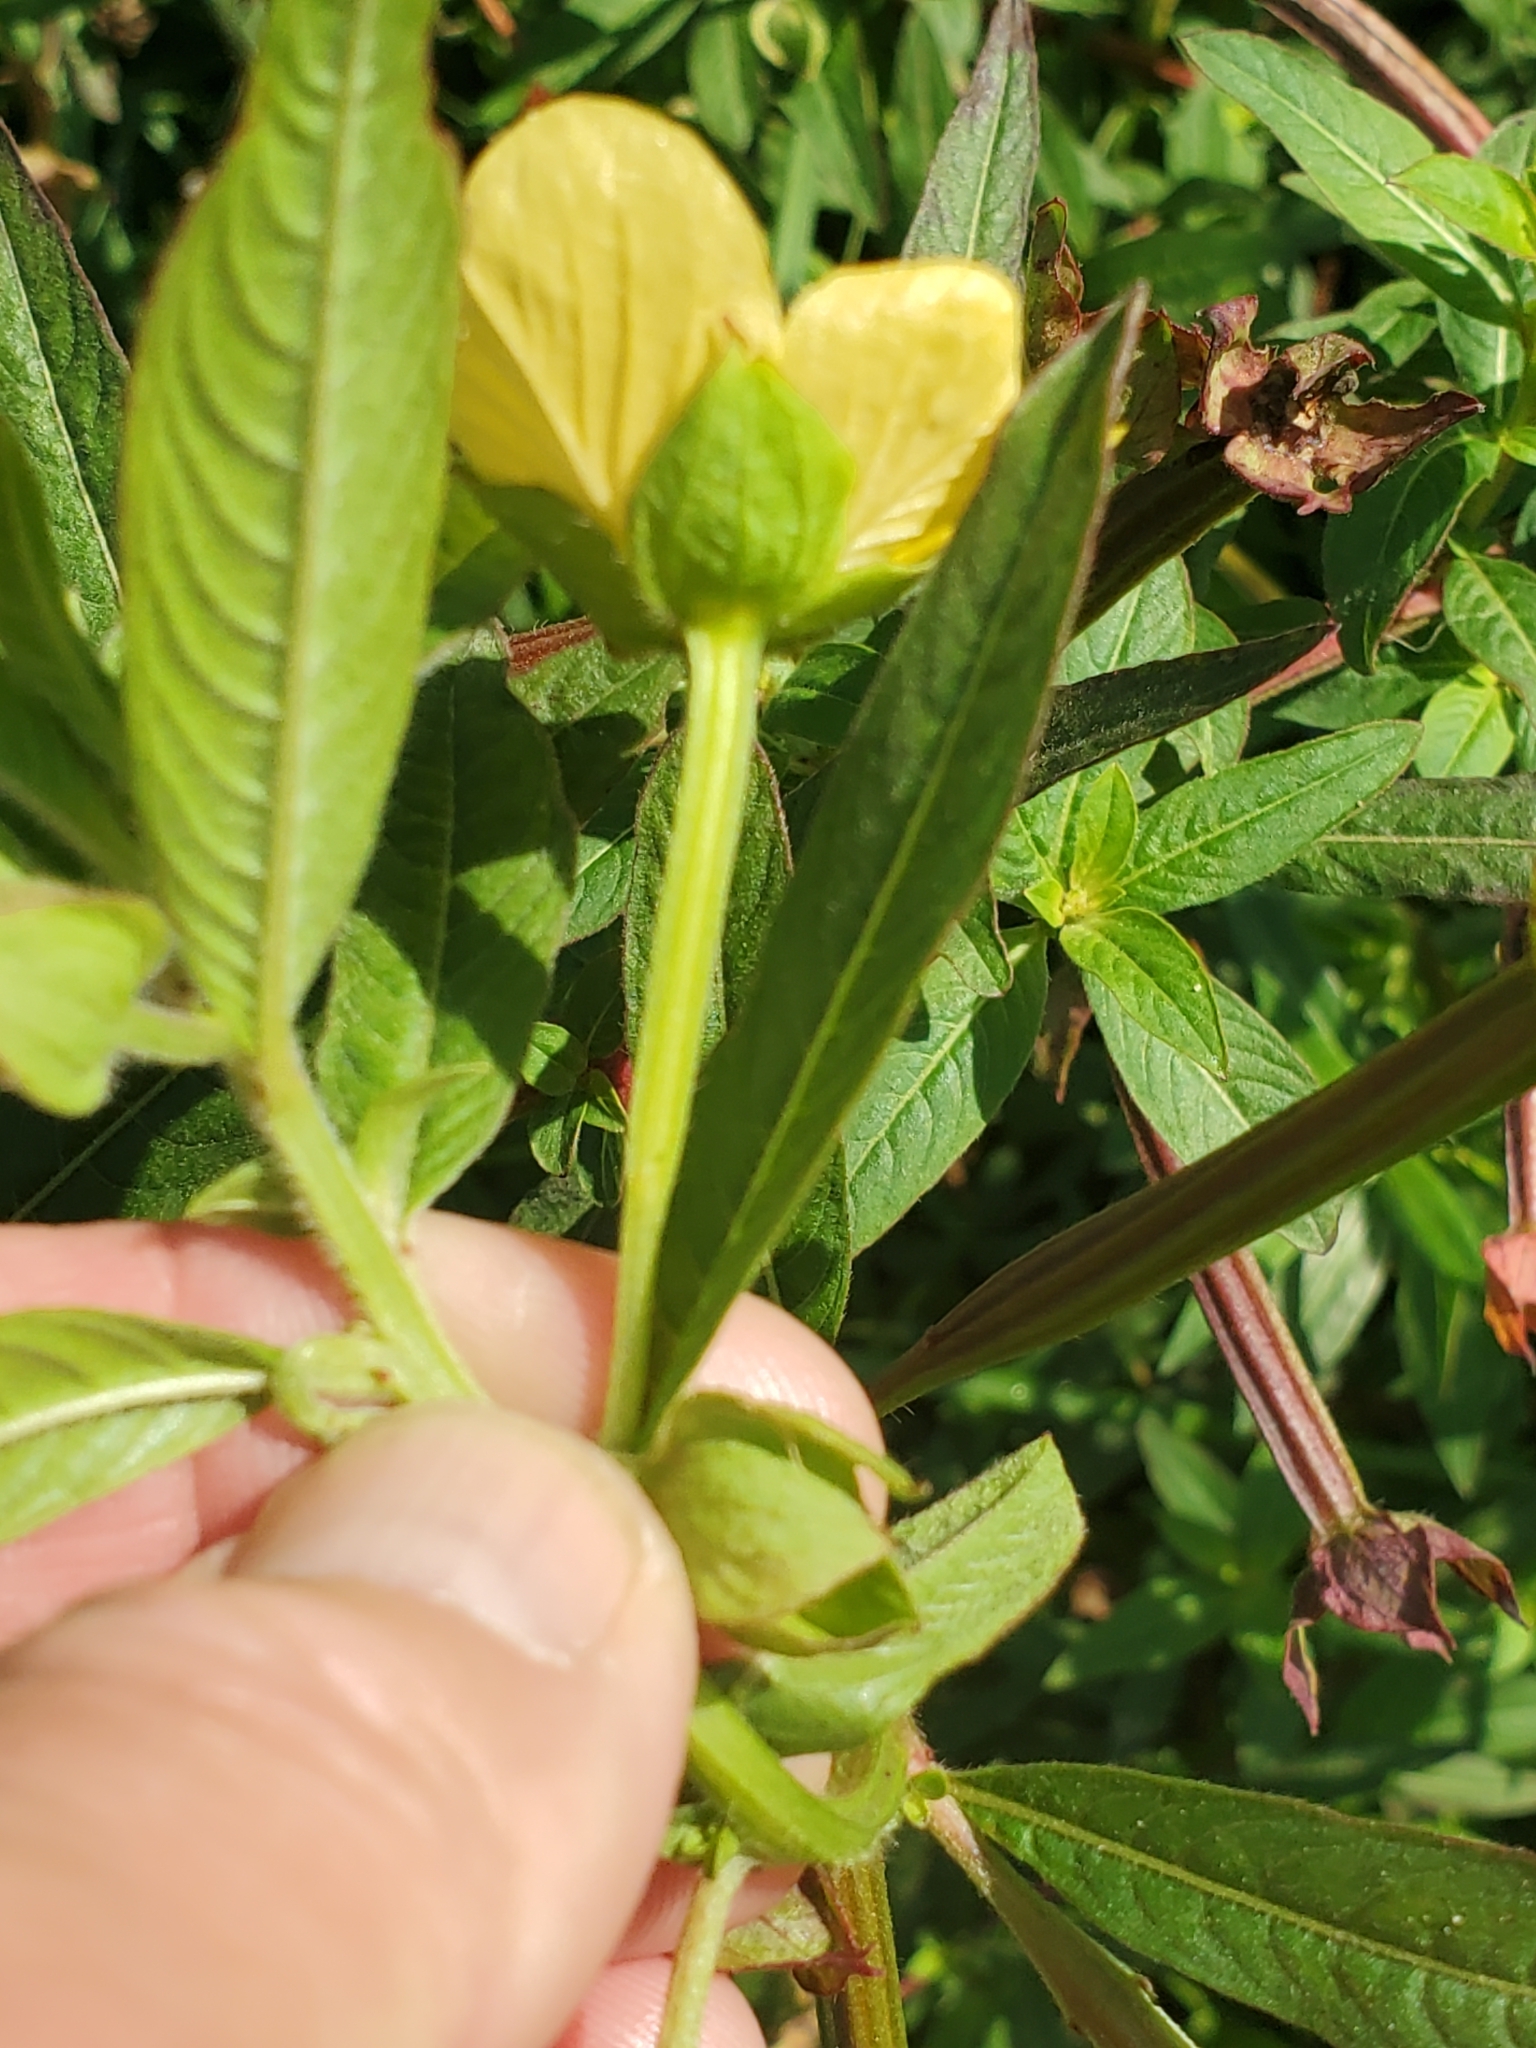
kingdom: Plantae
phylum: Tracheophyta
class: Magnoliopsida
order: Myrtales
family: Onagraceae
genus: Ludwigia
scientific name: Ludwigia octovalvis
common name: Water-primrose
